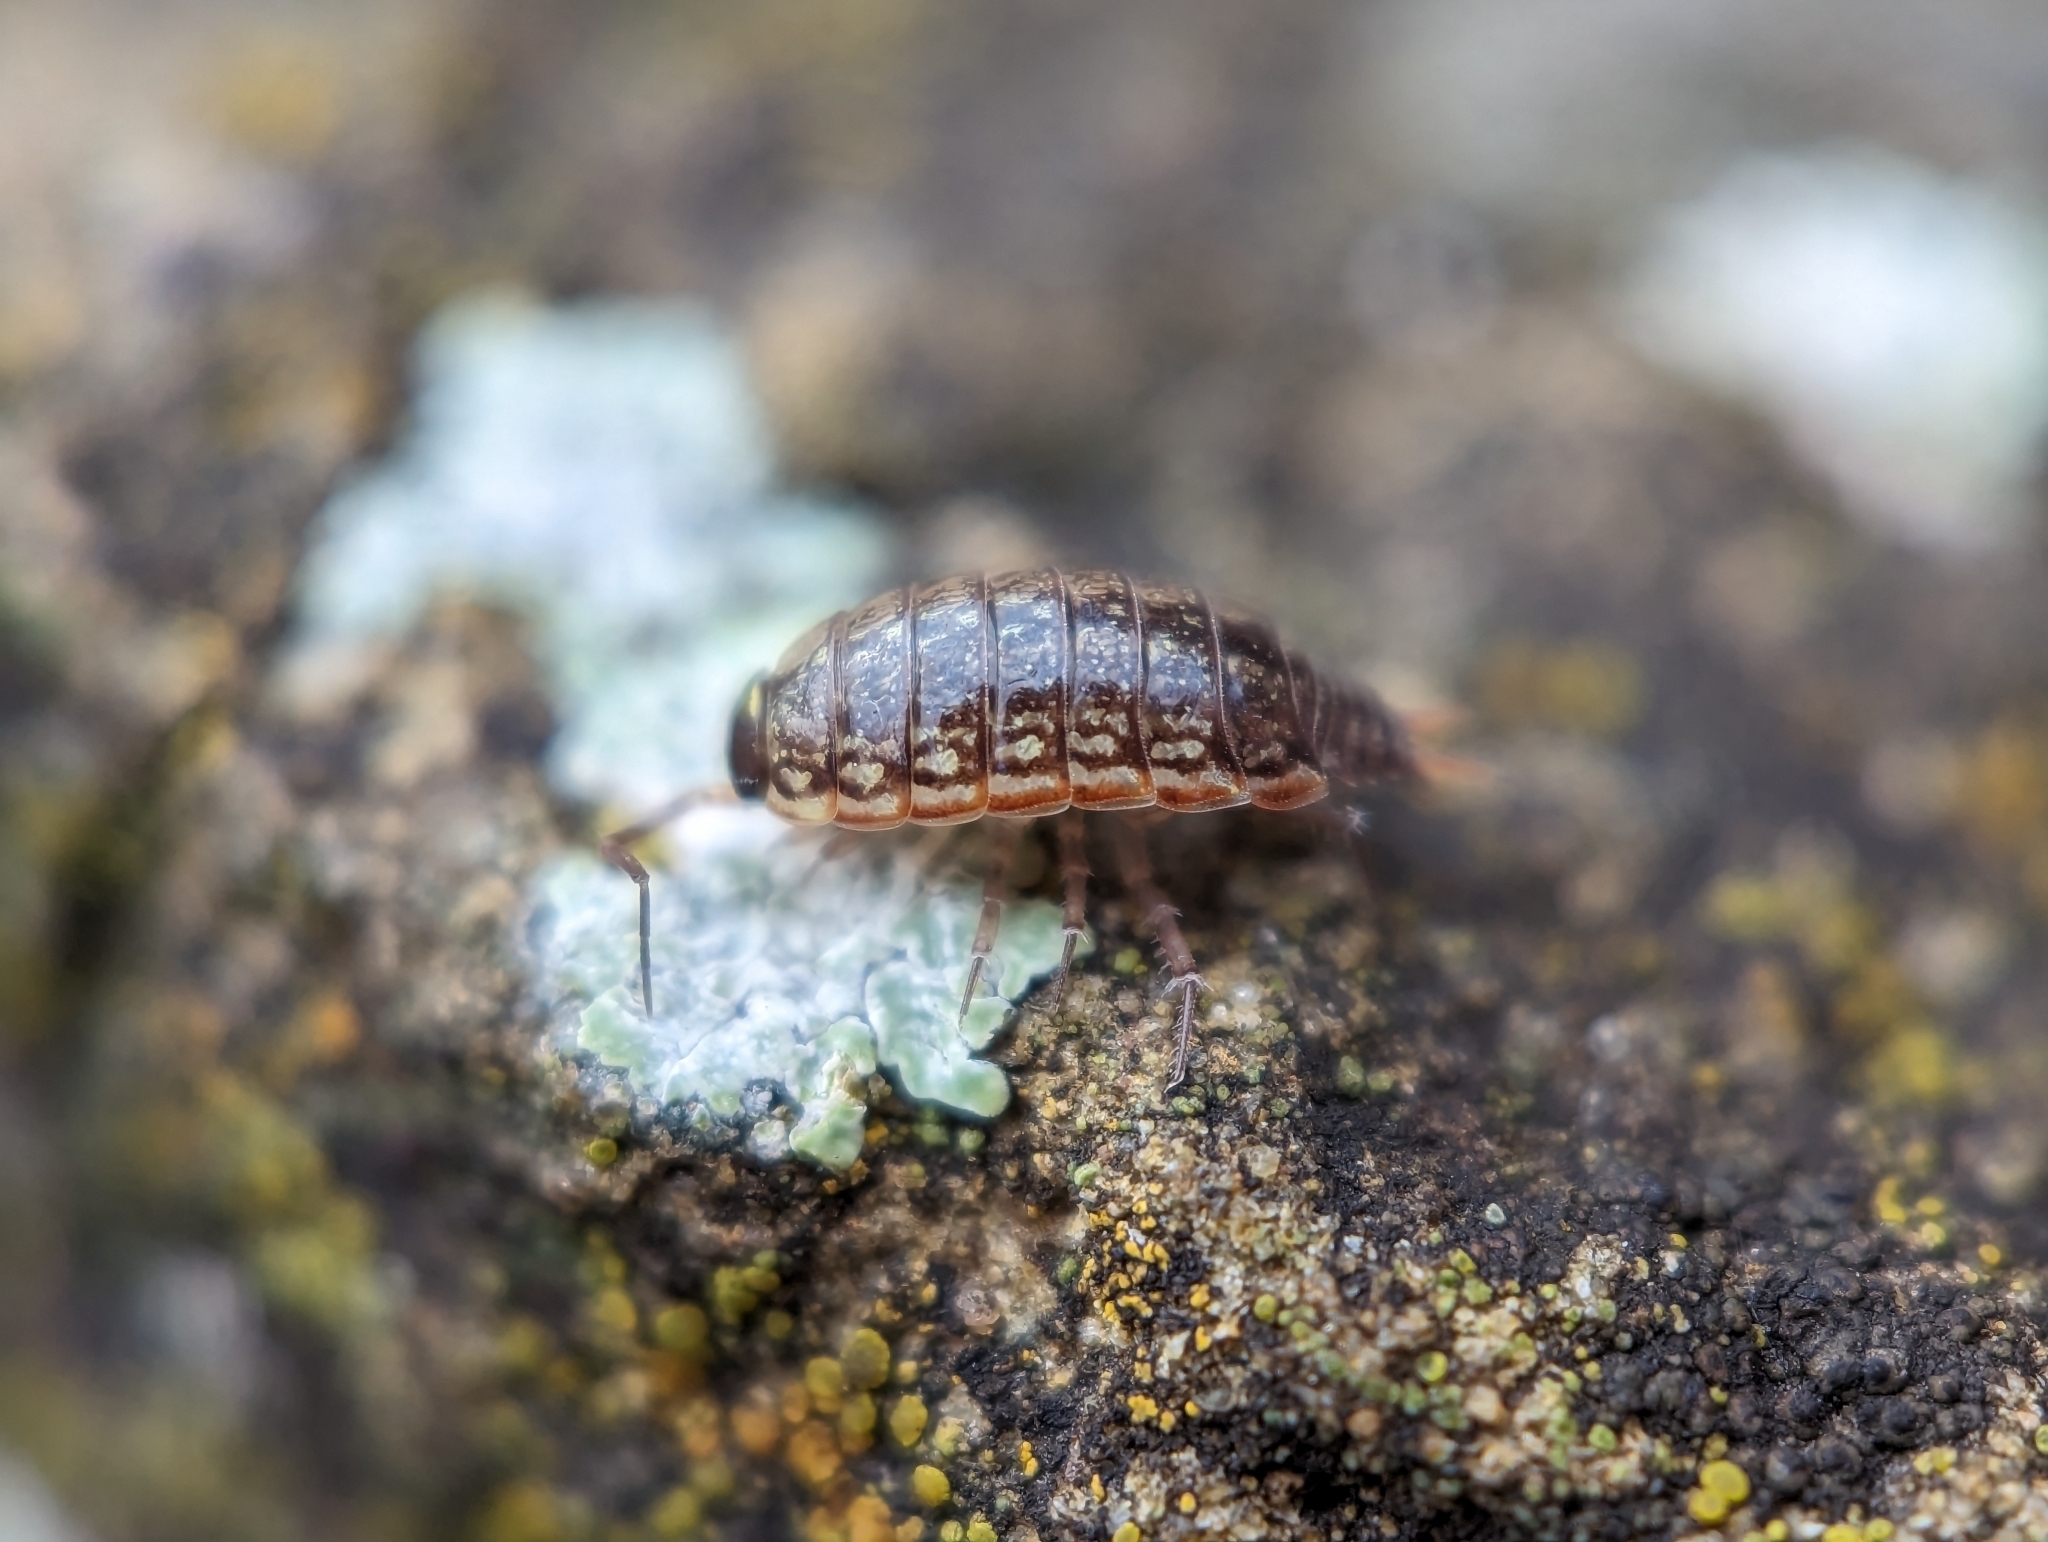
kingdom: Animalia
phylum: Arthropoda
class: Malacostraca
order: Isopoda
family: Philosciidae
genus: Philoscia
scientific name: Philoscia muscorum
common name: Common striped woodlouse
